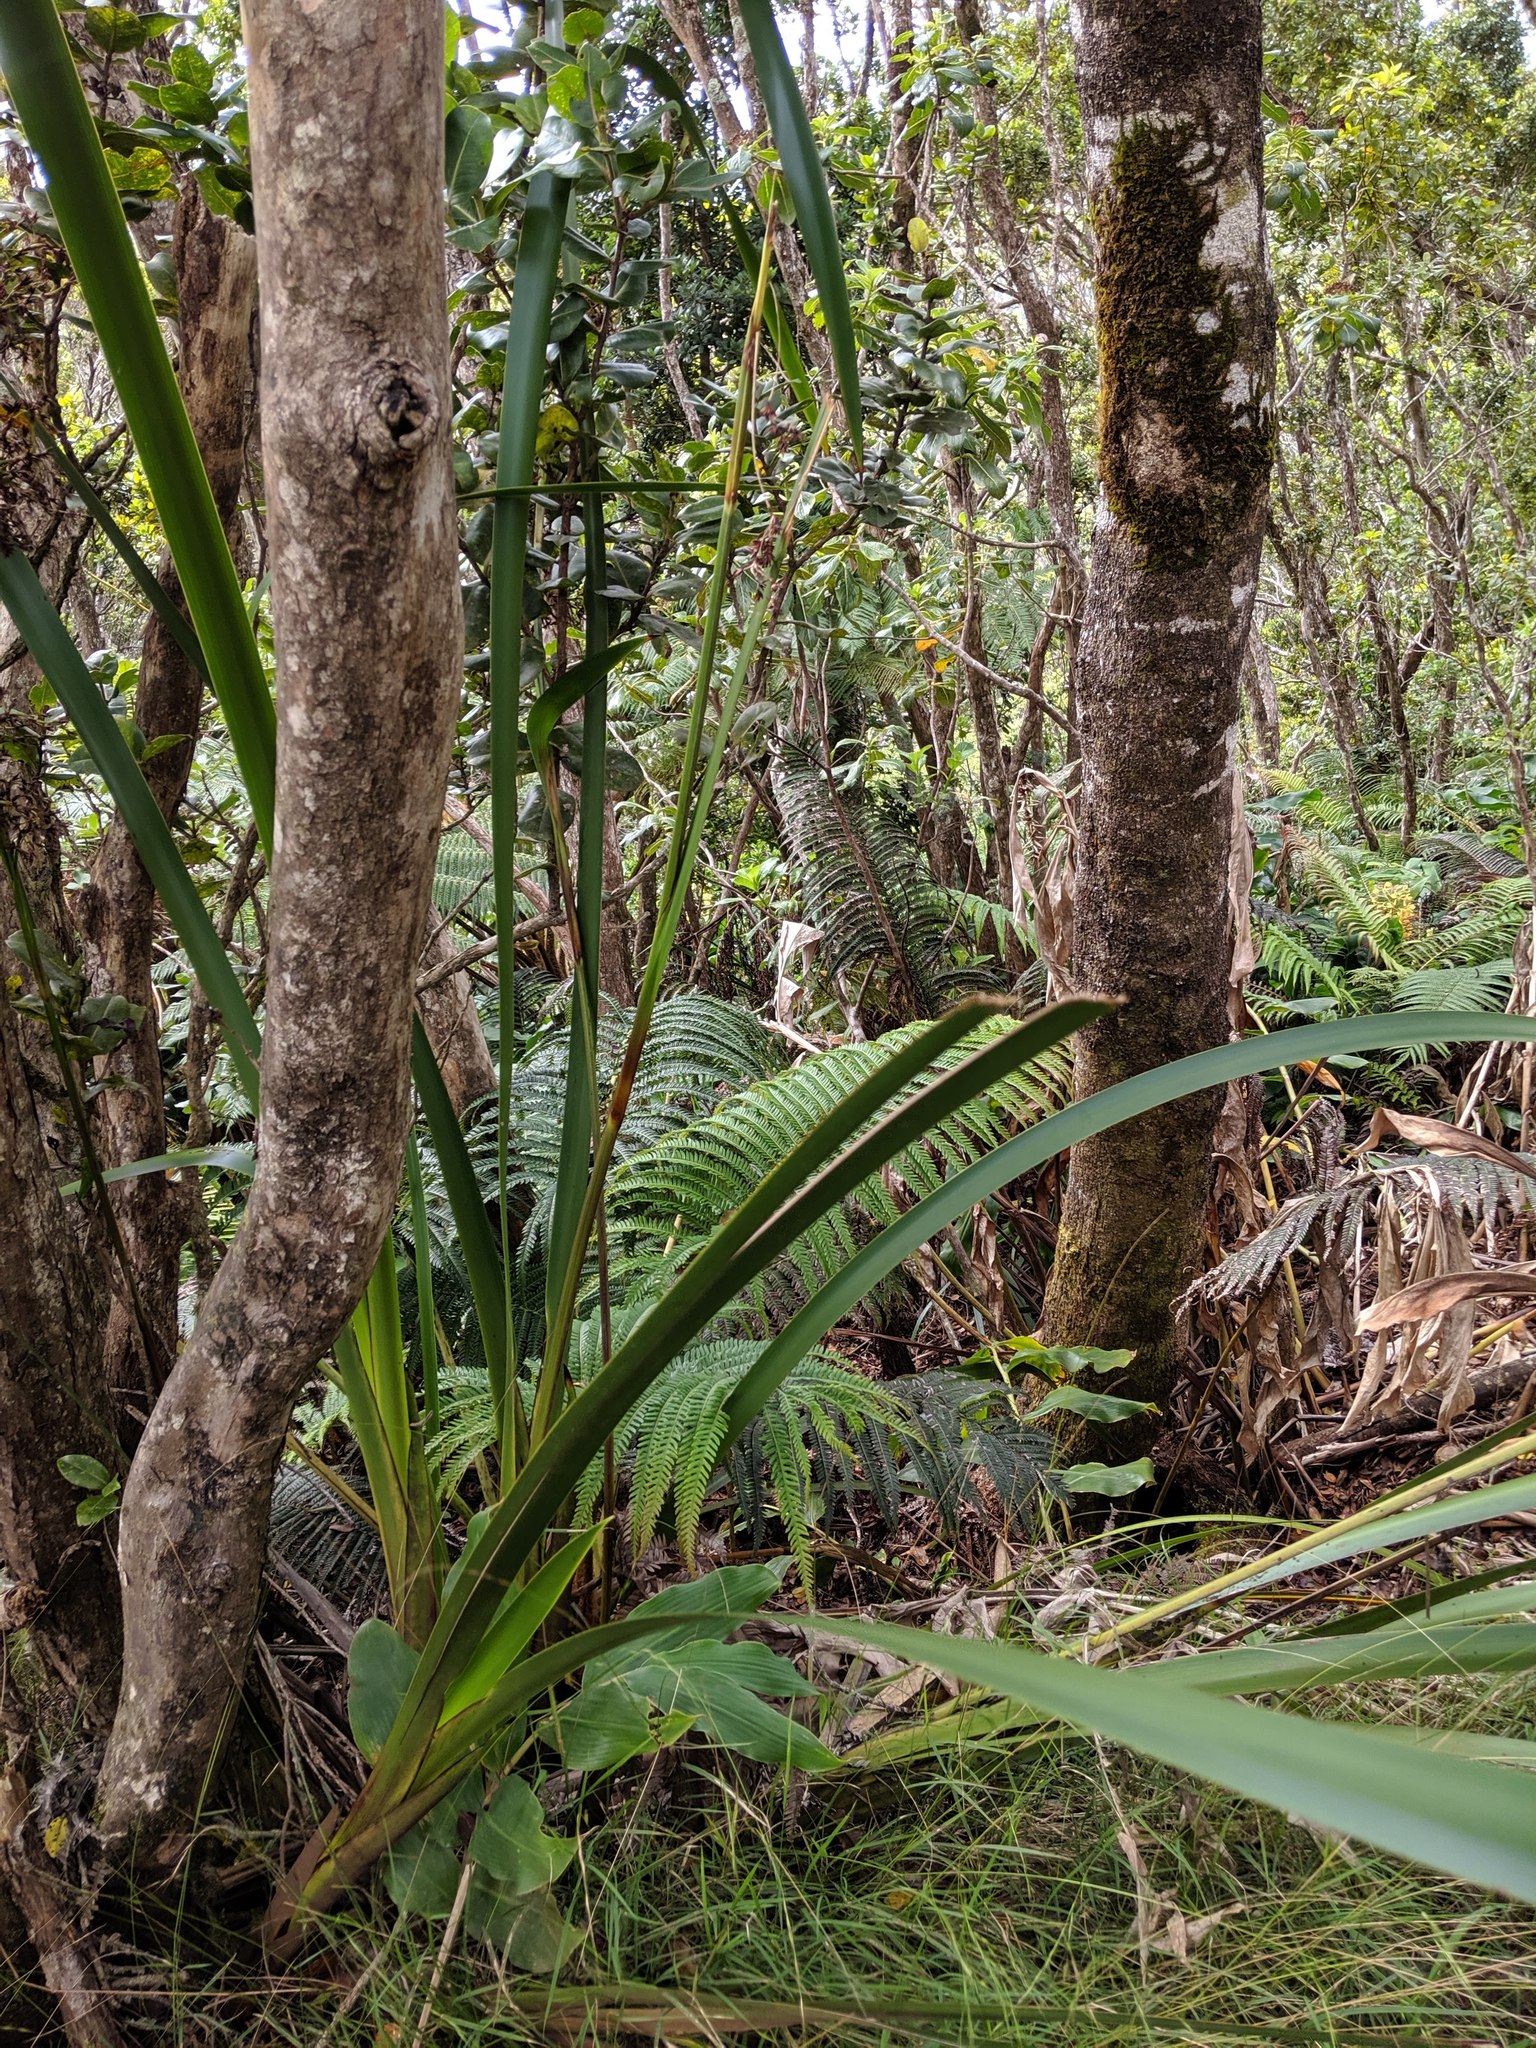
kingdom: Plantae
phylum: Tracheophyta
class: Liliopsida
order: Poales
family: Cyperaceae
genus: Machaerina
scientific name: Machaerina angustifolia
